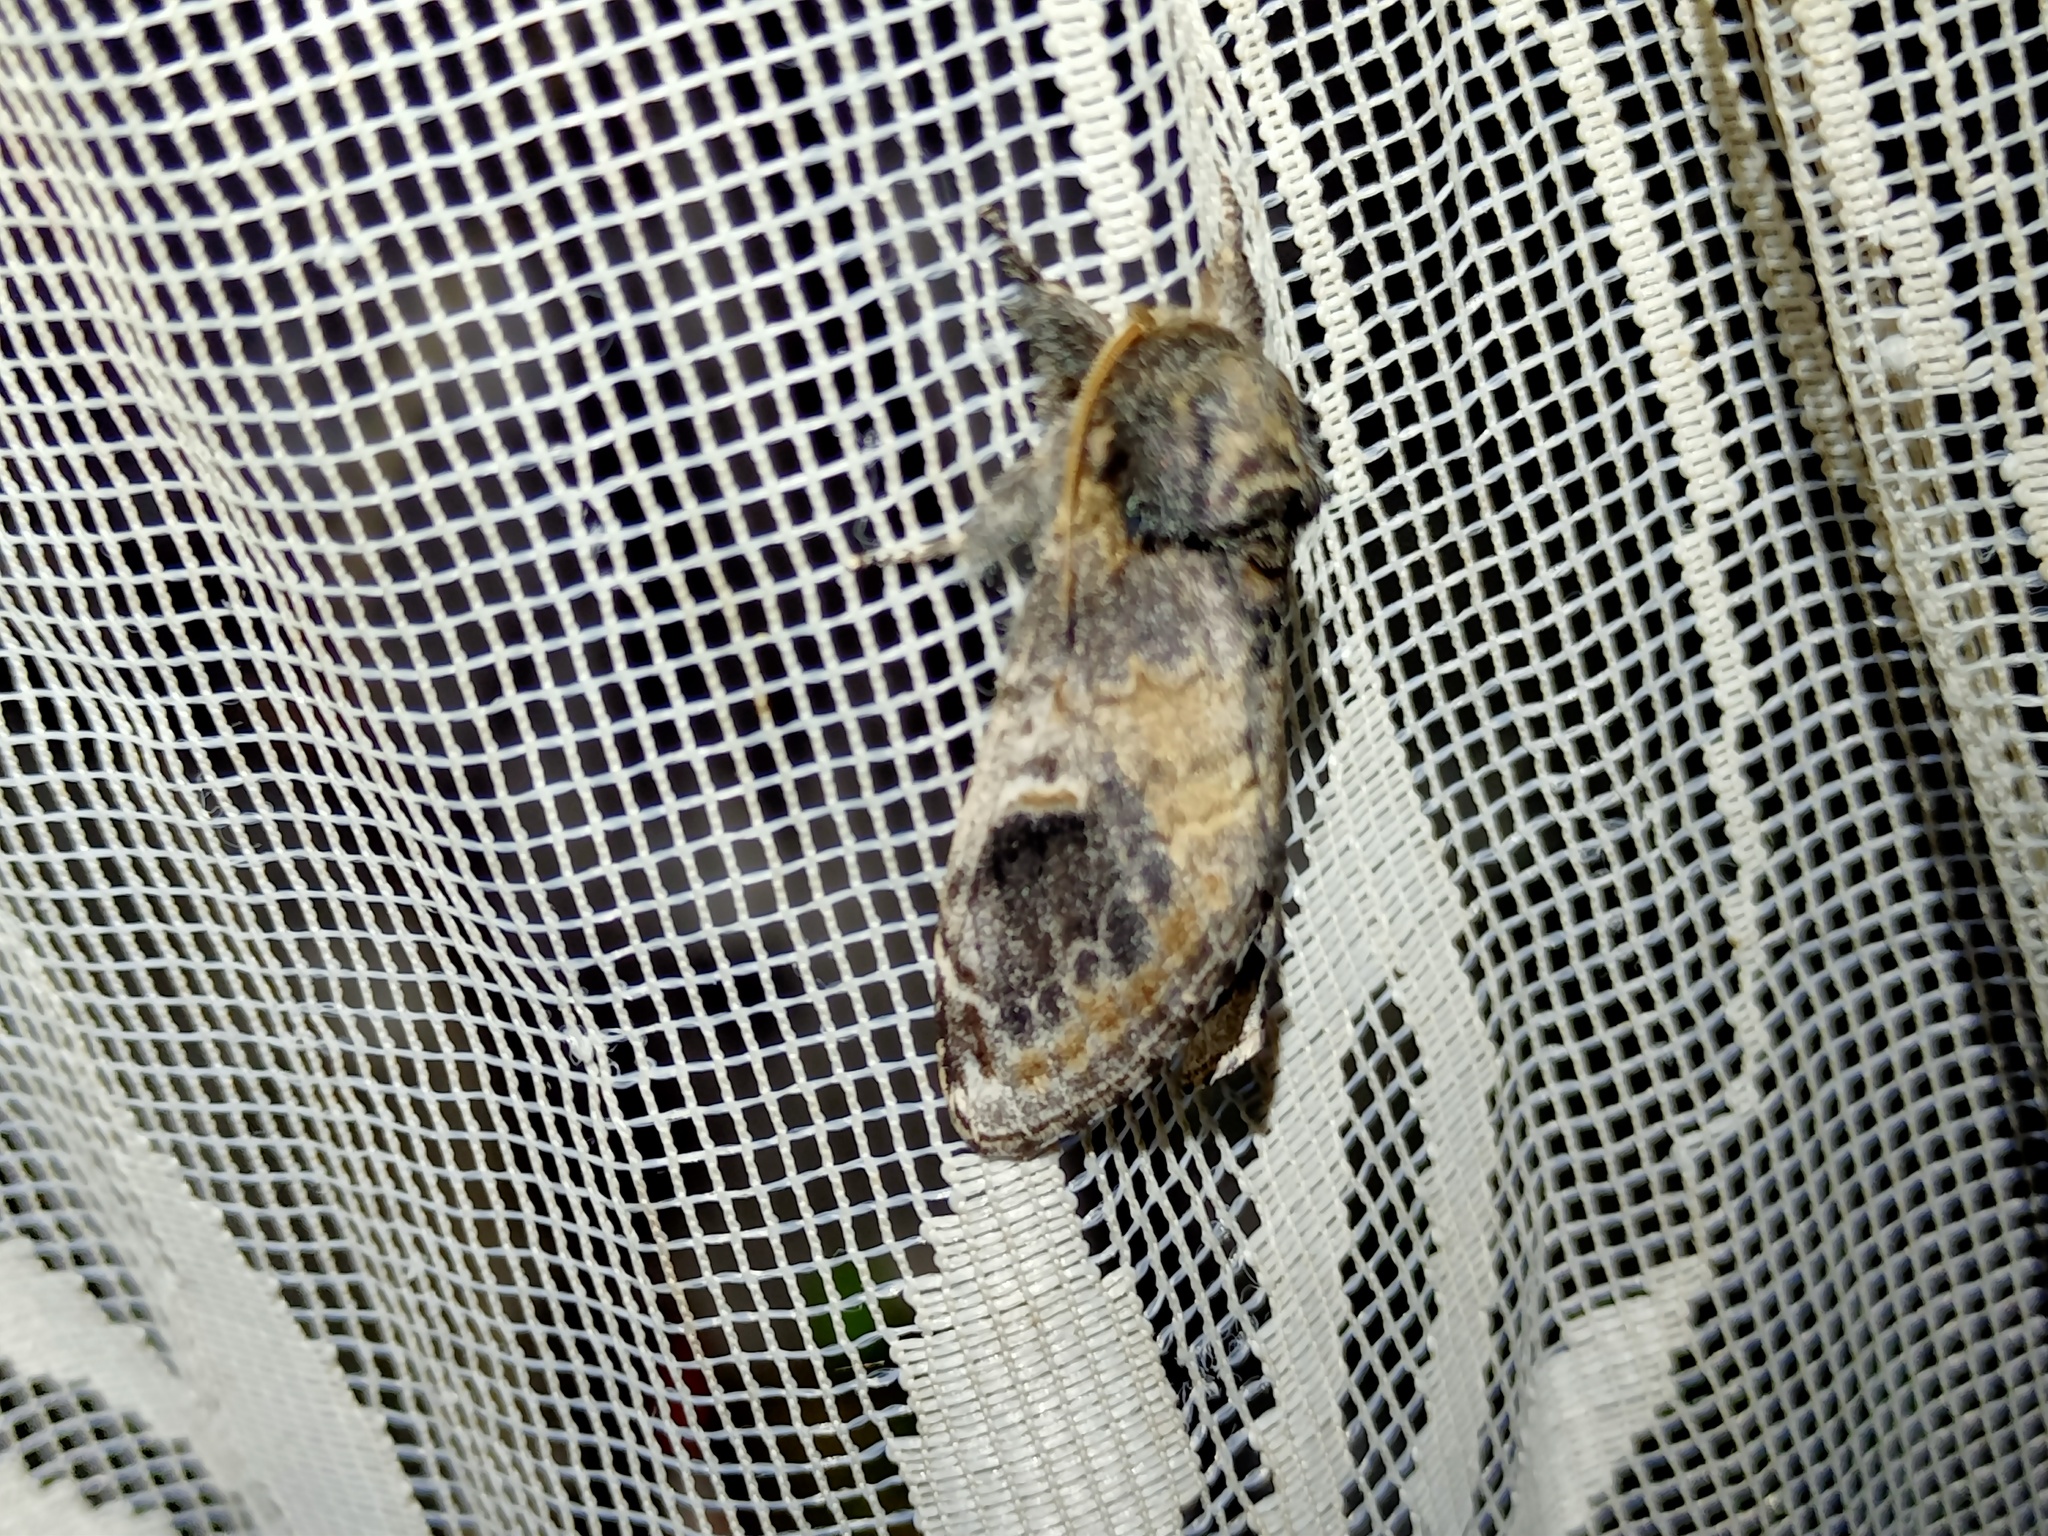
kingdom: Animalia
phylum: Arthropoda
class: Insecta
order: Lepidoptera
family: Notodontidae
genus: Notodonta
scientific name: Notodonta tritophus
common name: Three-humped prominent
